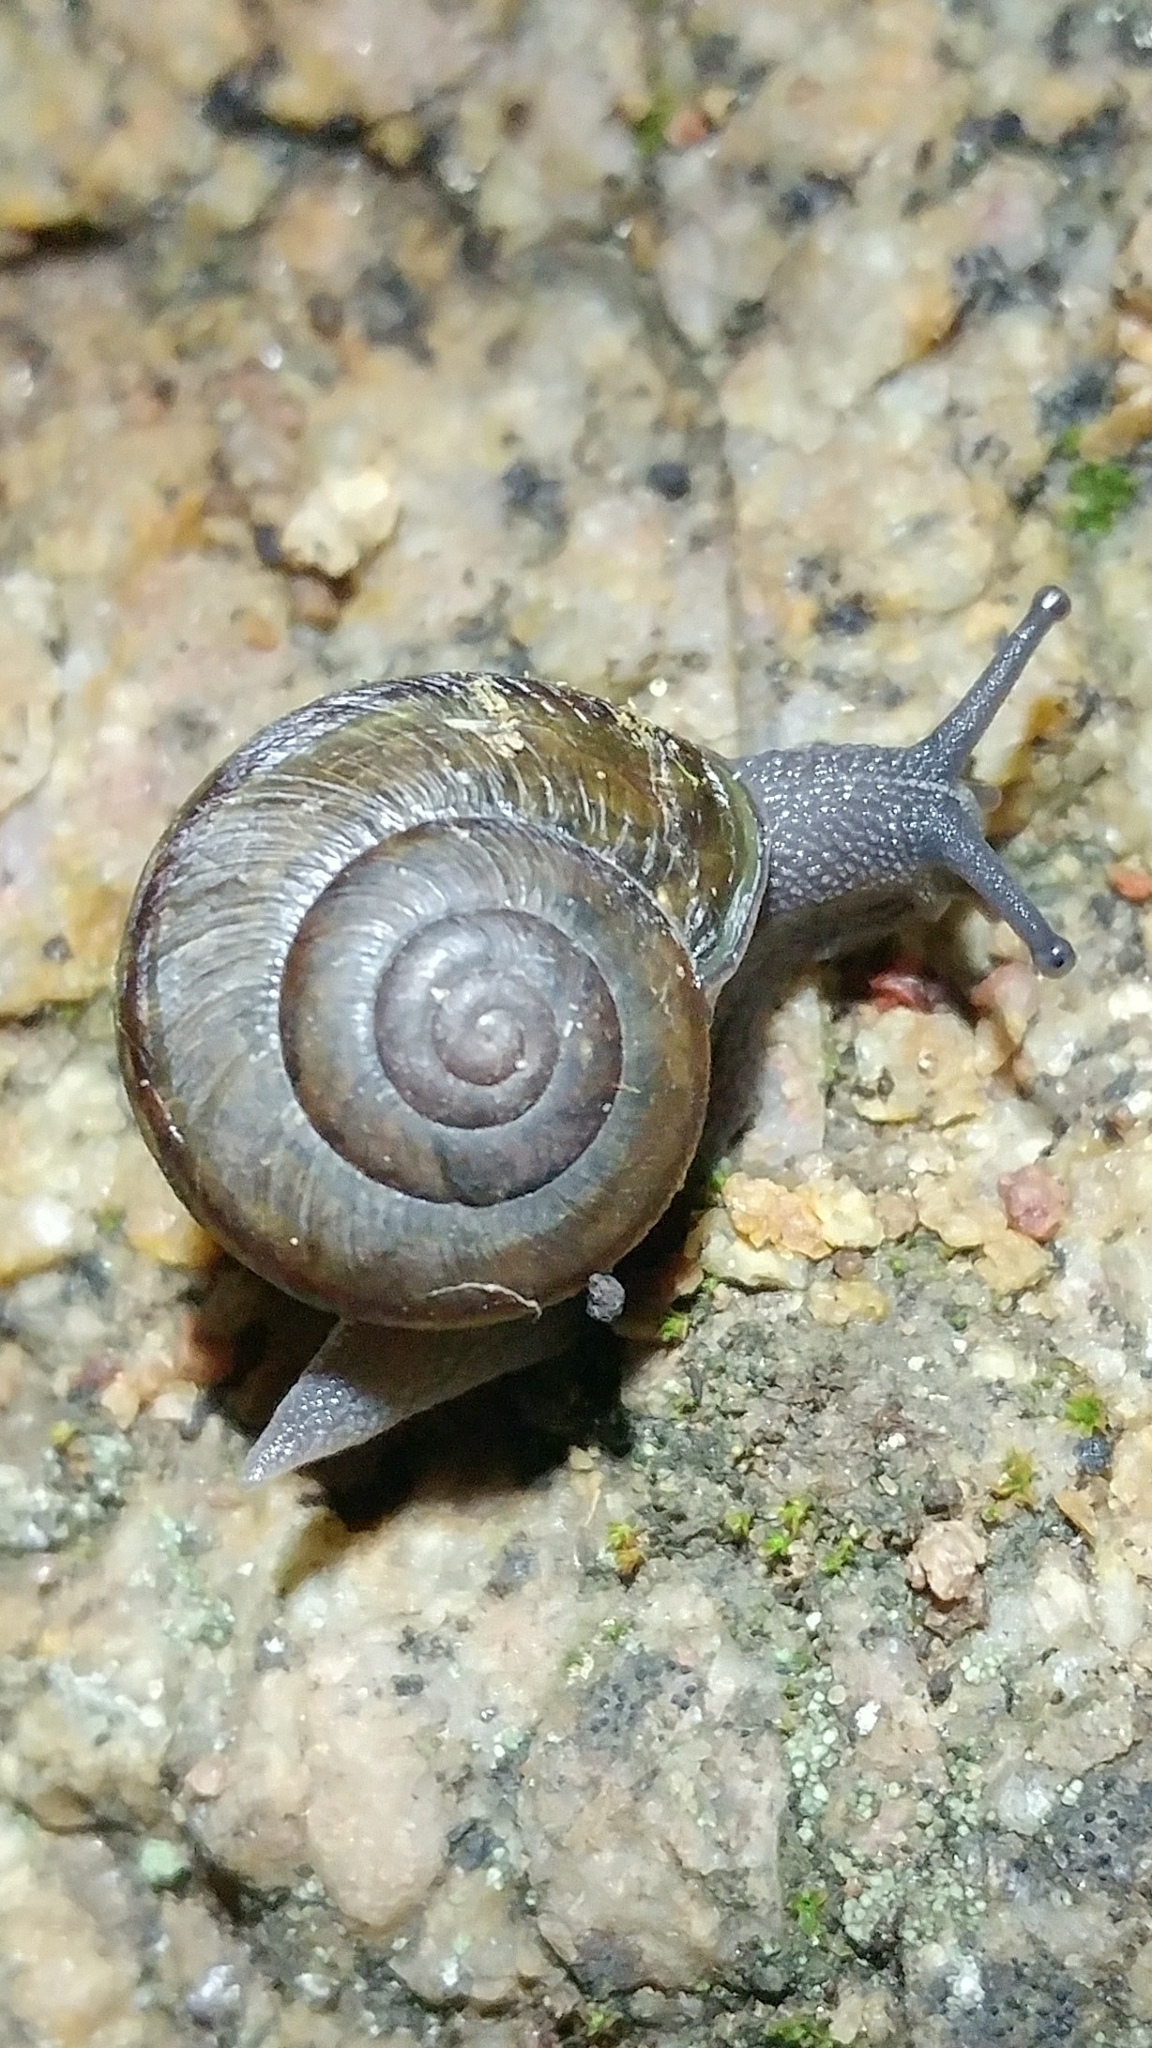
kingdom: Animalia
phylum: Mollusca
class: Gastropoda
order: Stylommatophora
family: Xanthonychidae
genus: Helminthoglypta
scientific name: Helminthoglypta tudiculata
